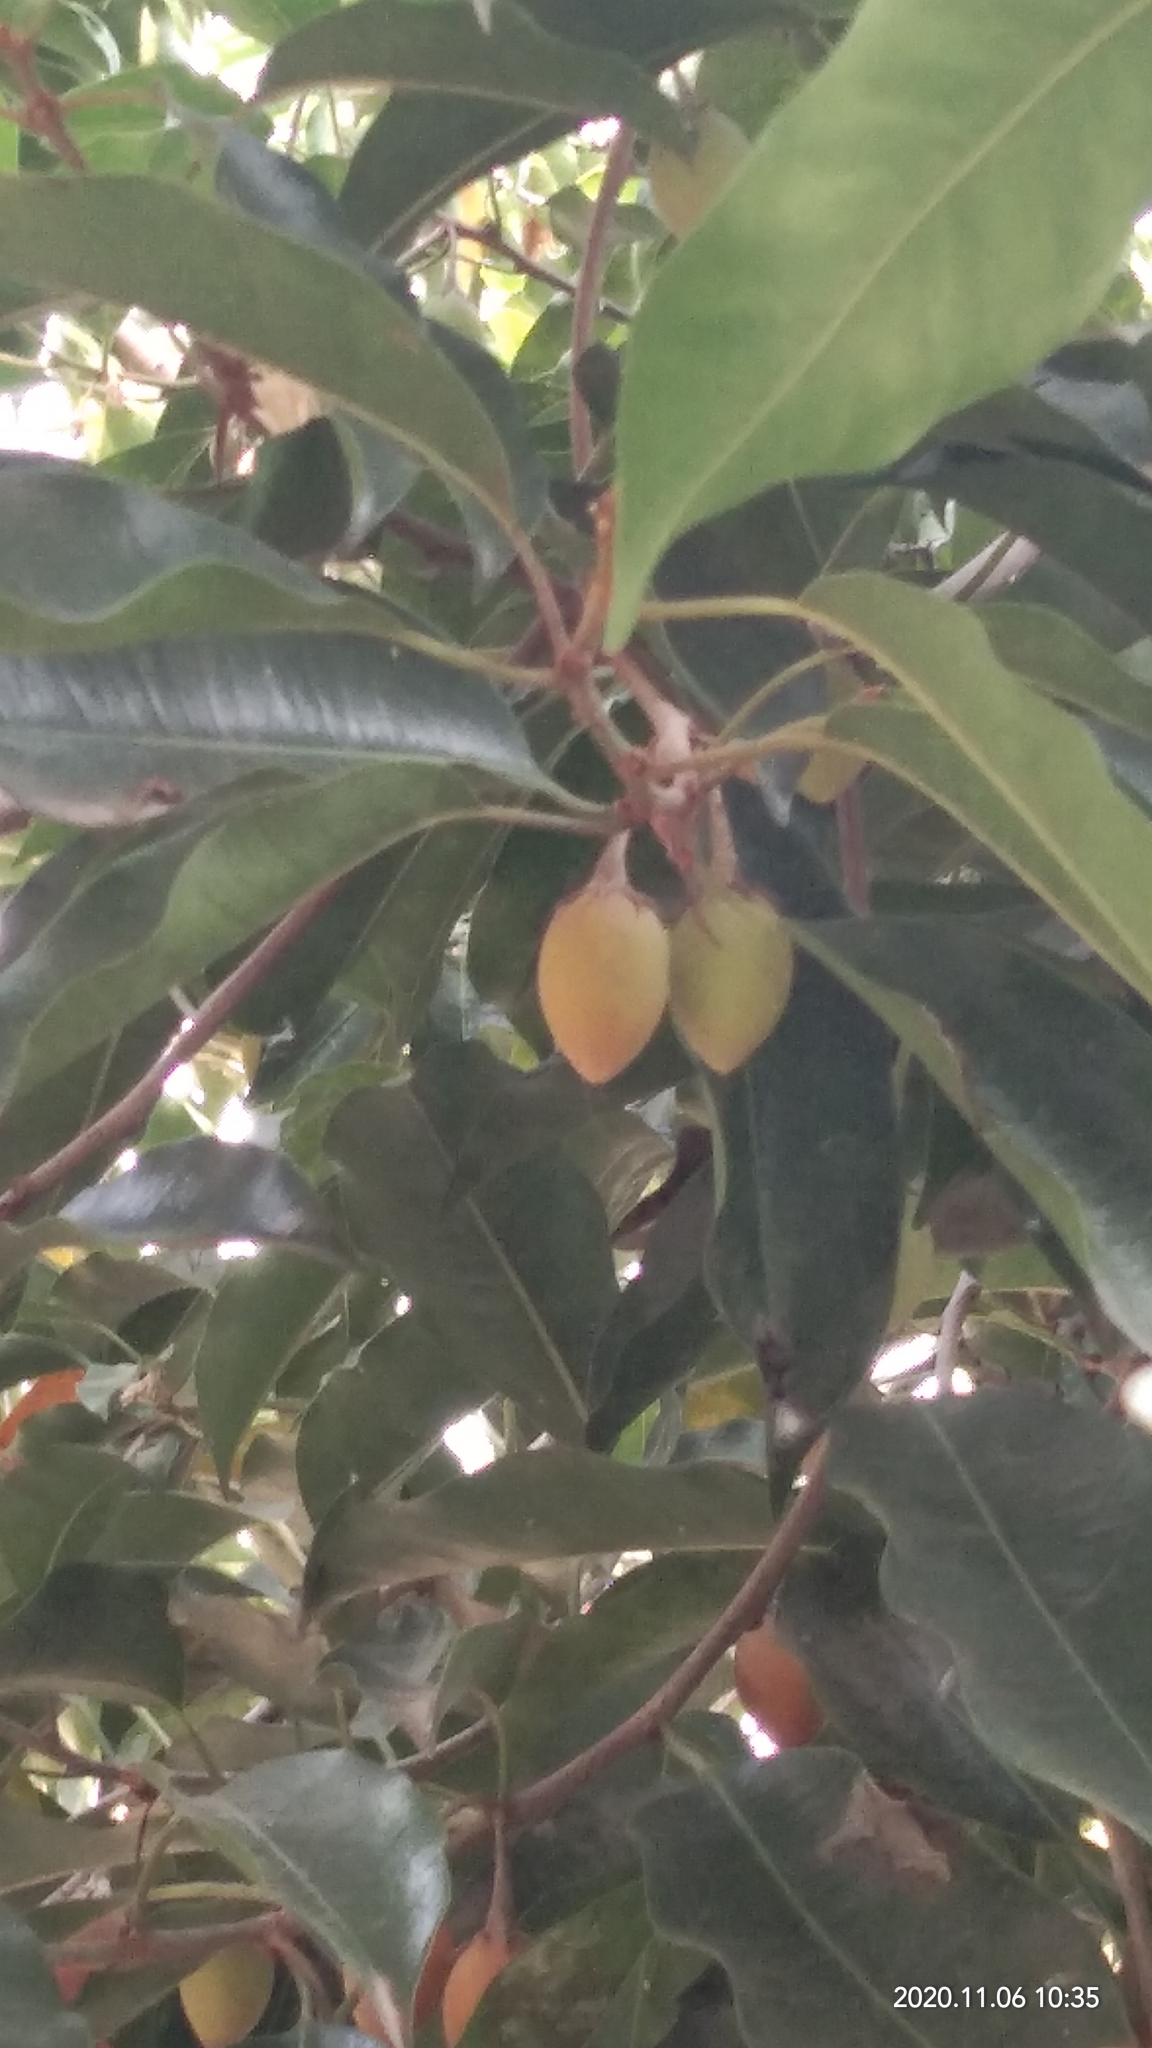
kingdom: Plantae
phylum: Tracheophyta
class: Magnoliopsida
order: Ericales
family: Sapotaceae
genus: Mimusops
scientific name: Mimusops elengi
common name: Spanish cherry
